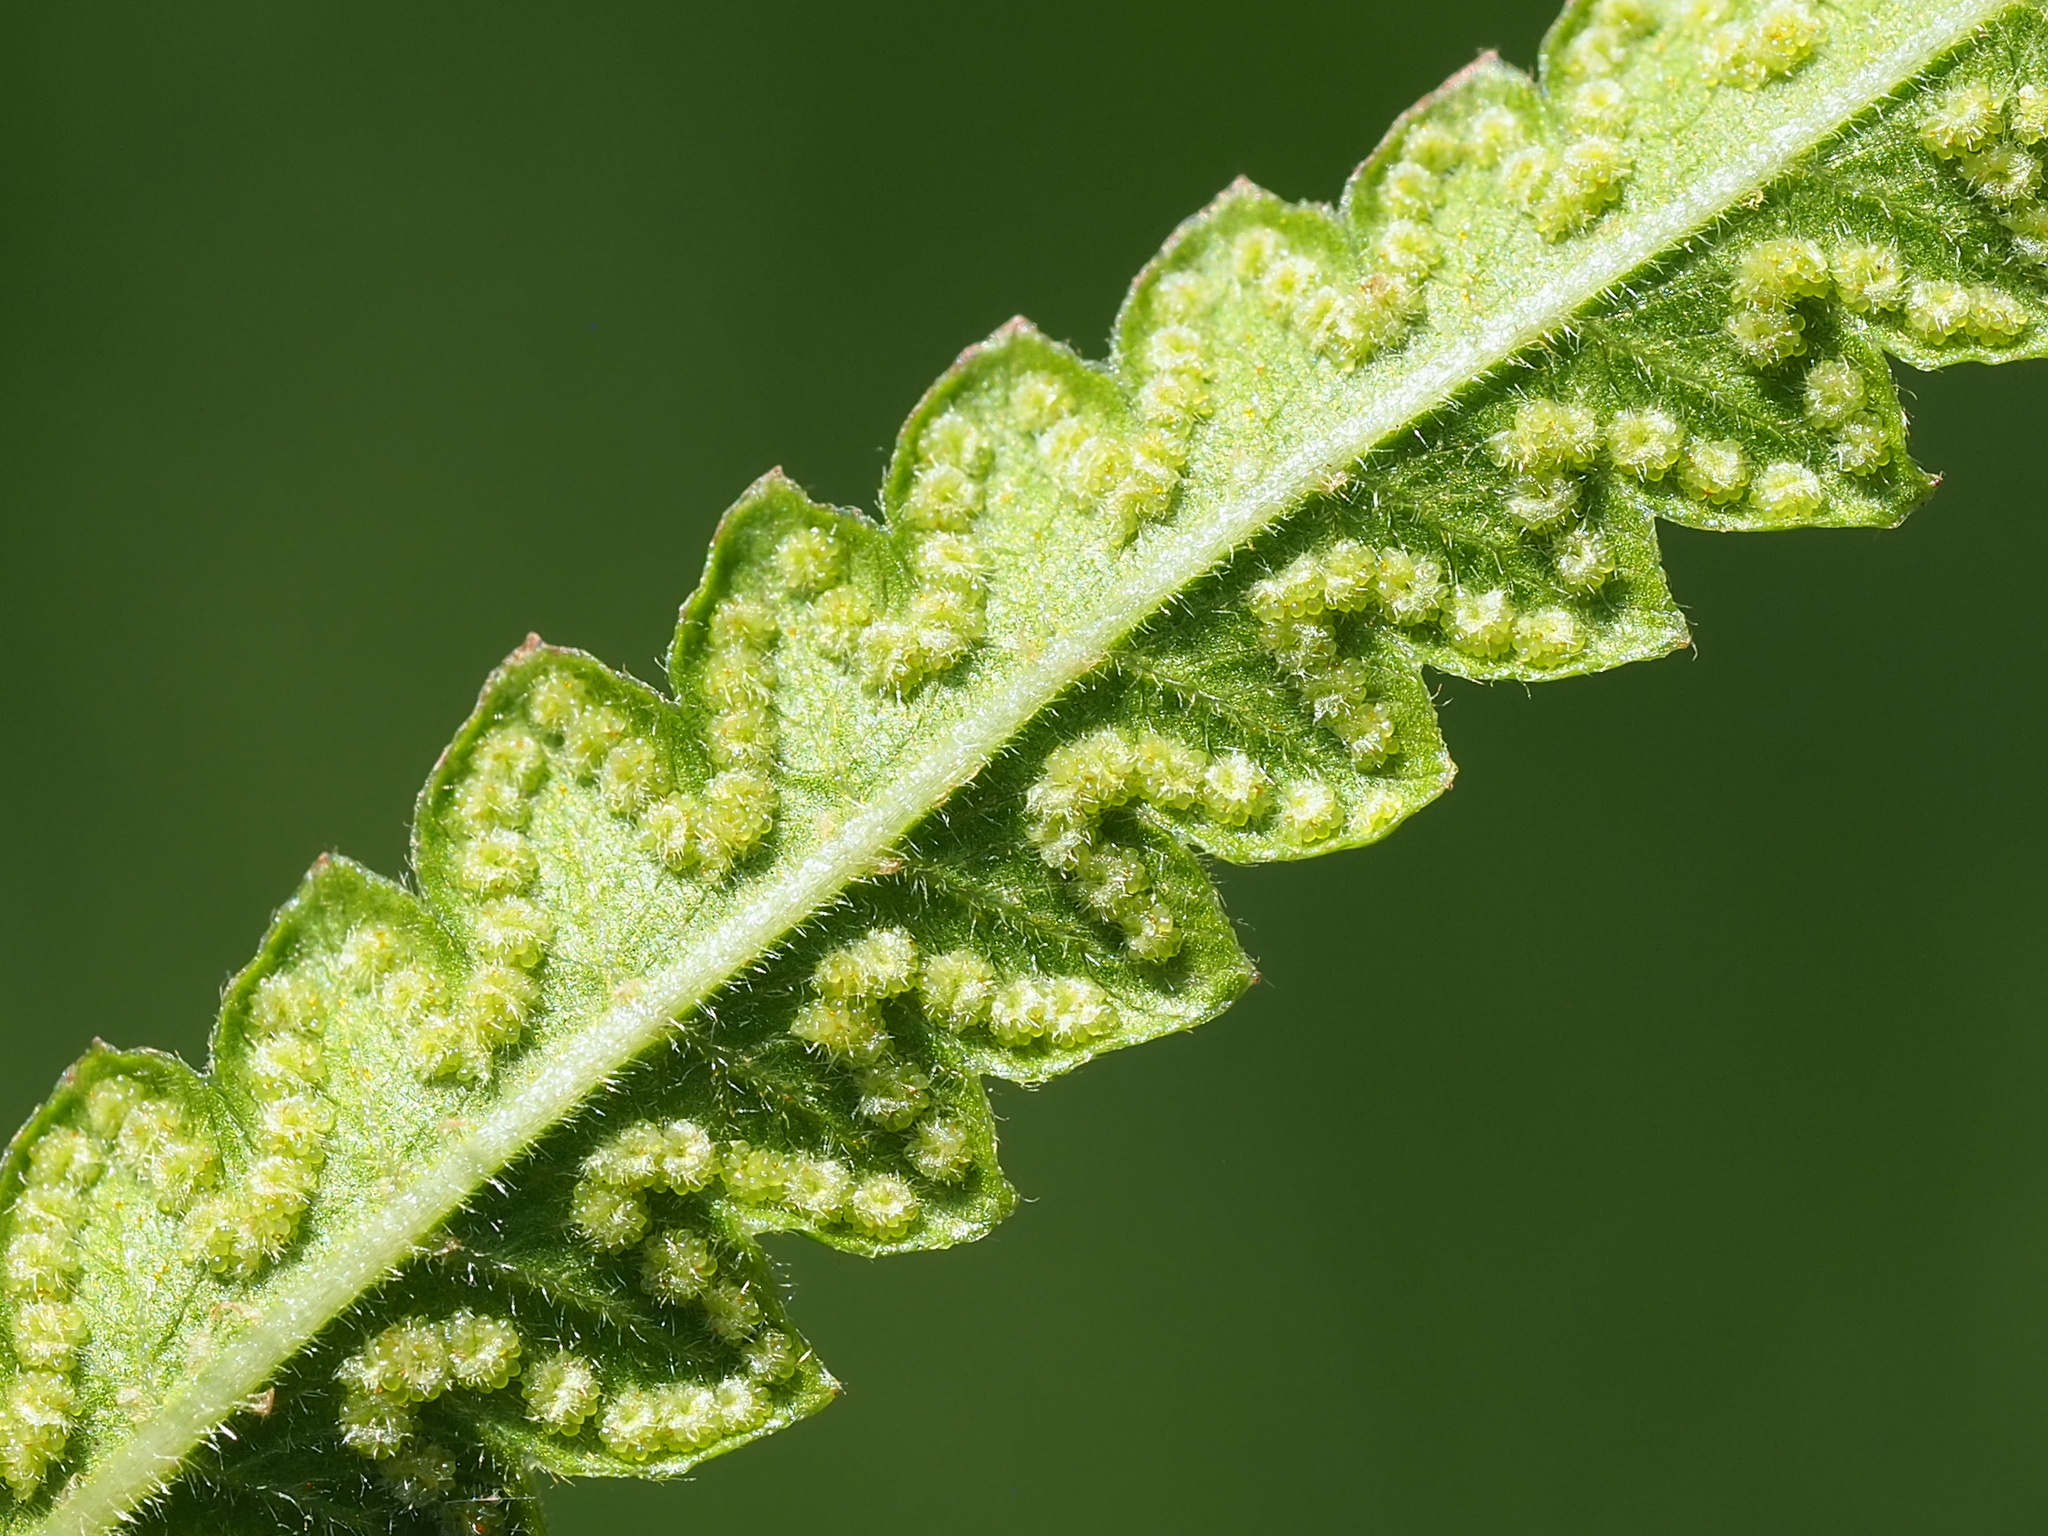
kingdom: Plantae
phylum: Tracheophyta
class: Polypodiopsida
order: Polypodiales
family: Thelypteridaceae
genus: Cyclosorus
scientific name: Cyclosorus interruptus
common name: Neke fern
